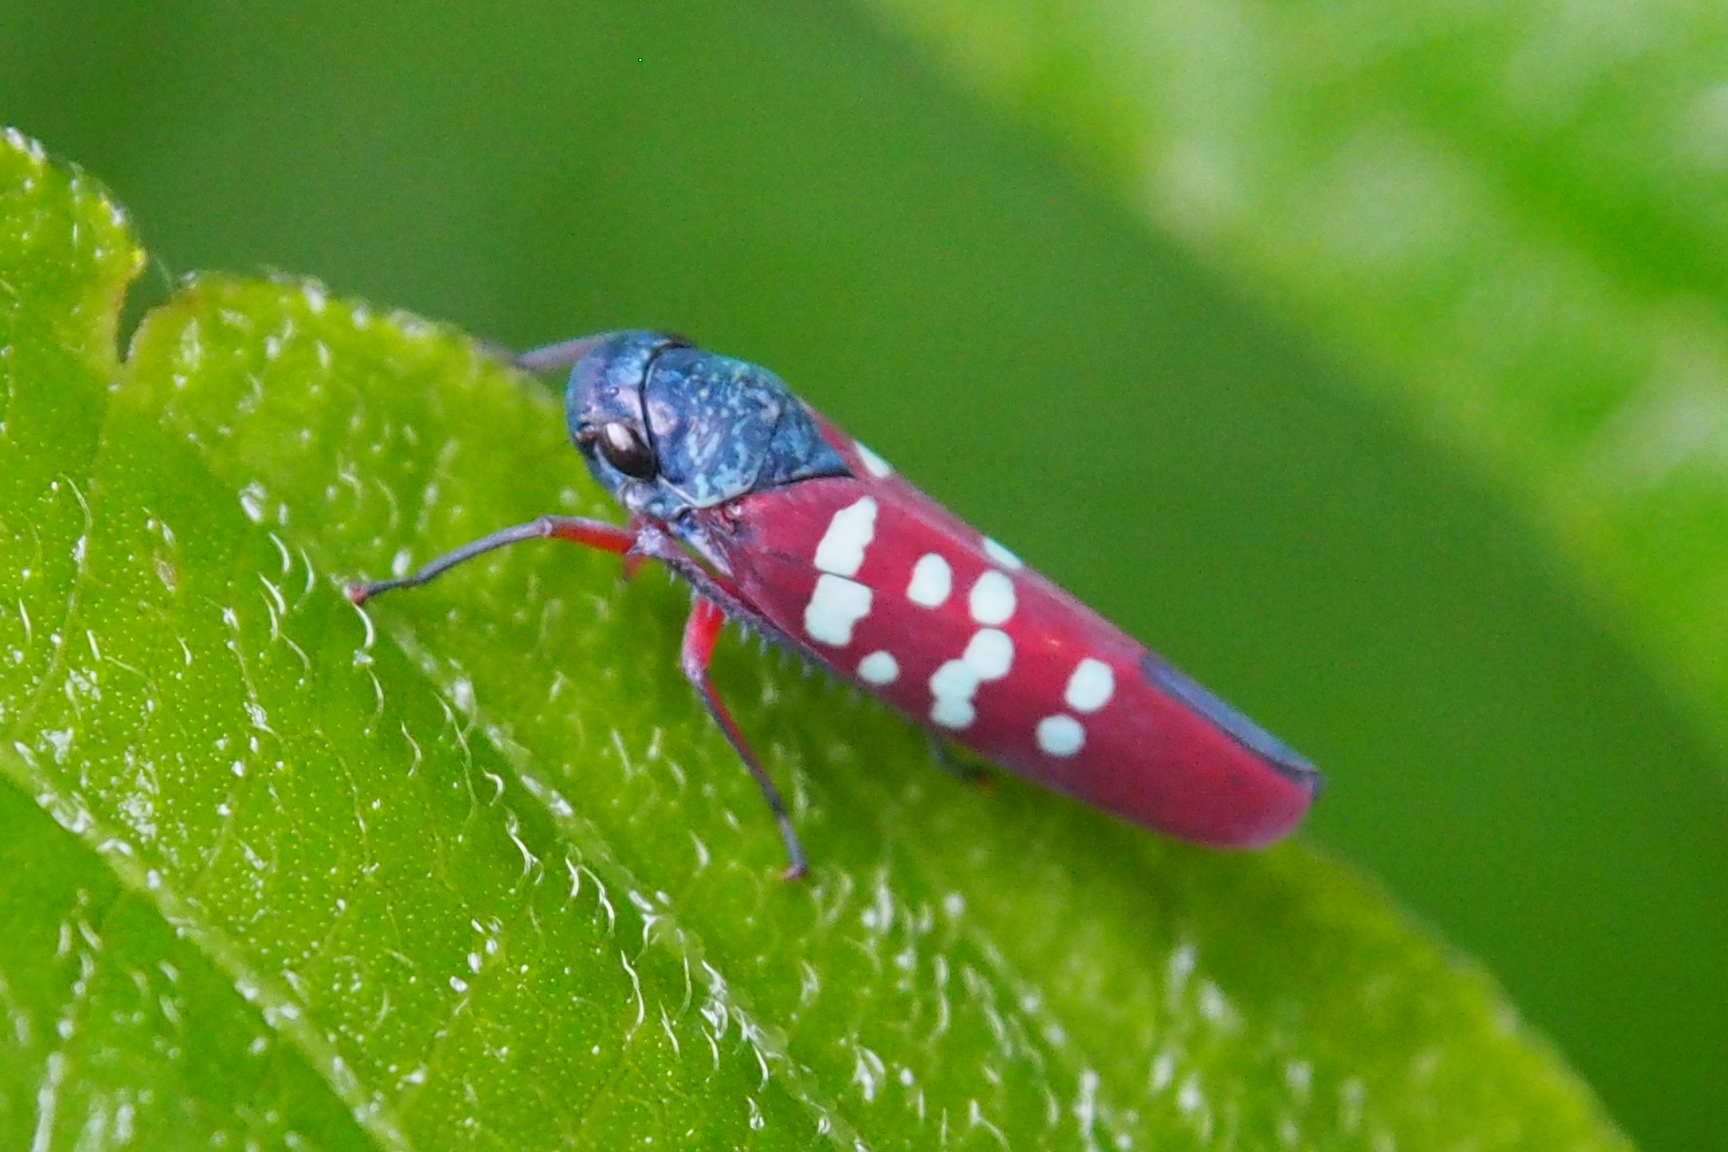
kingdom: Animalia
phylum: Arthropoda
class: Insecta
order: Hemiptera
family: Cicadellidae
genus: Graphocephala
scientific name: Graphocephala albomaculata
